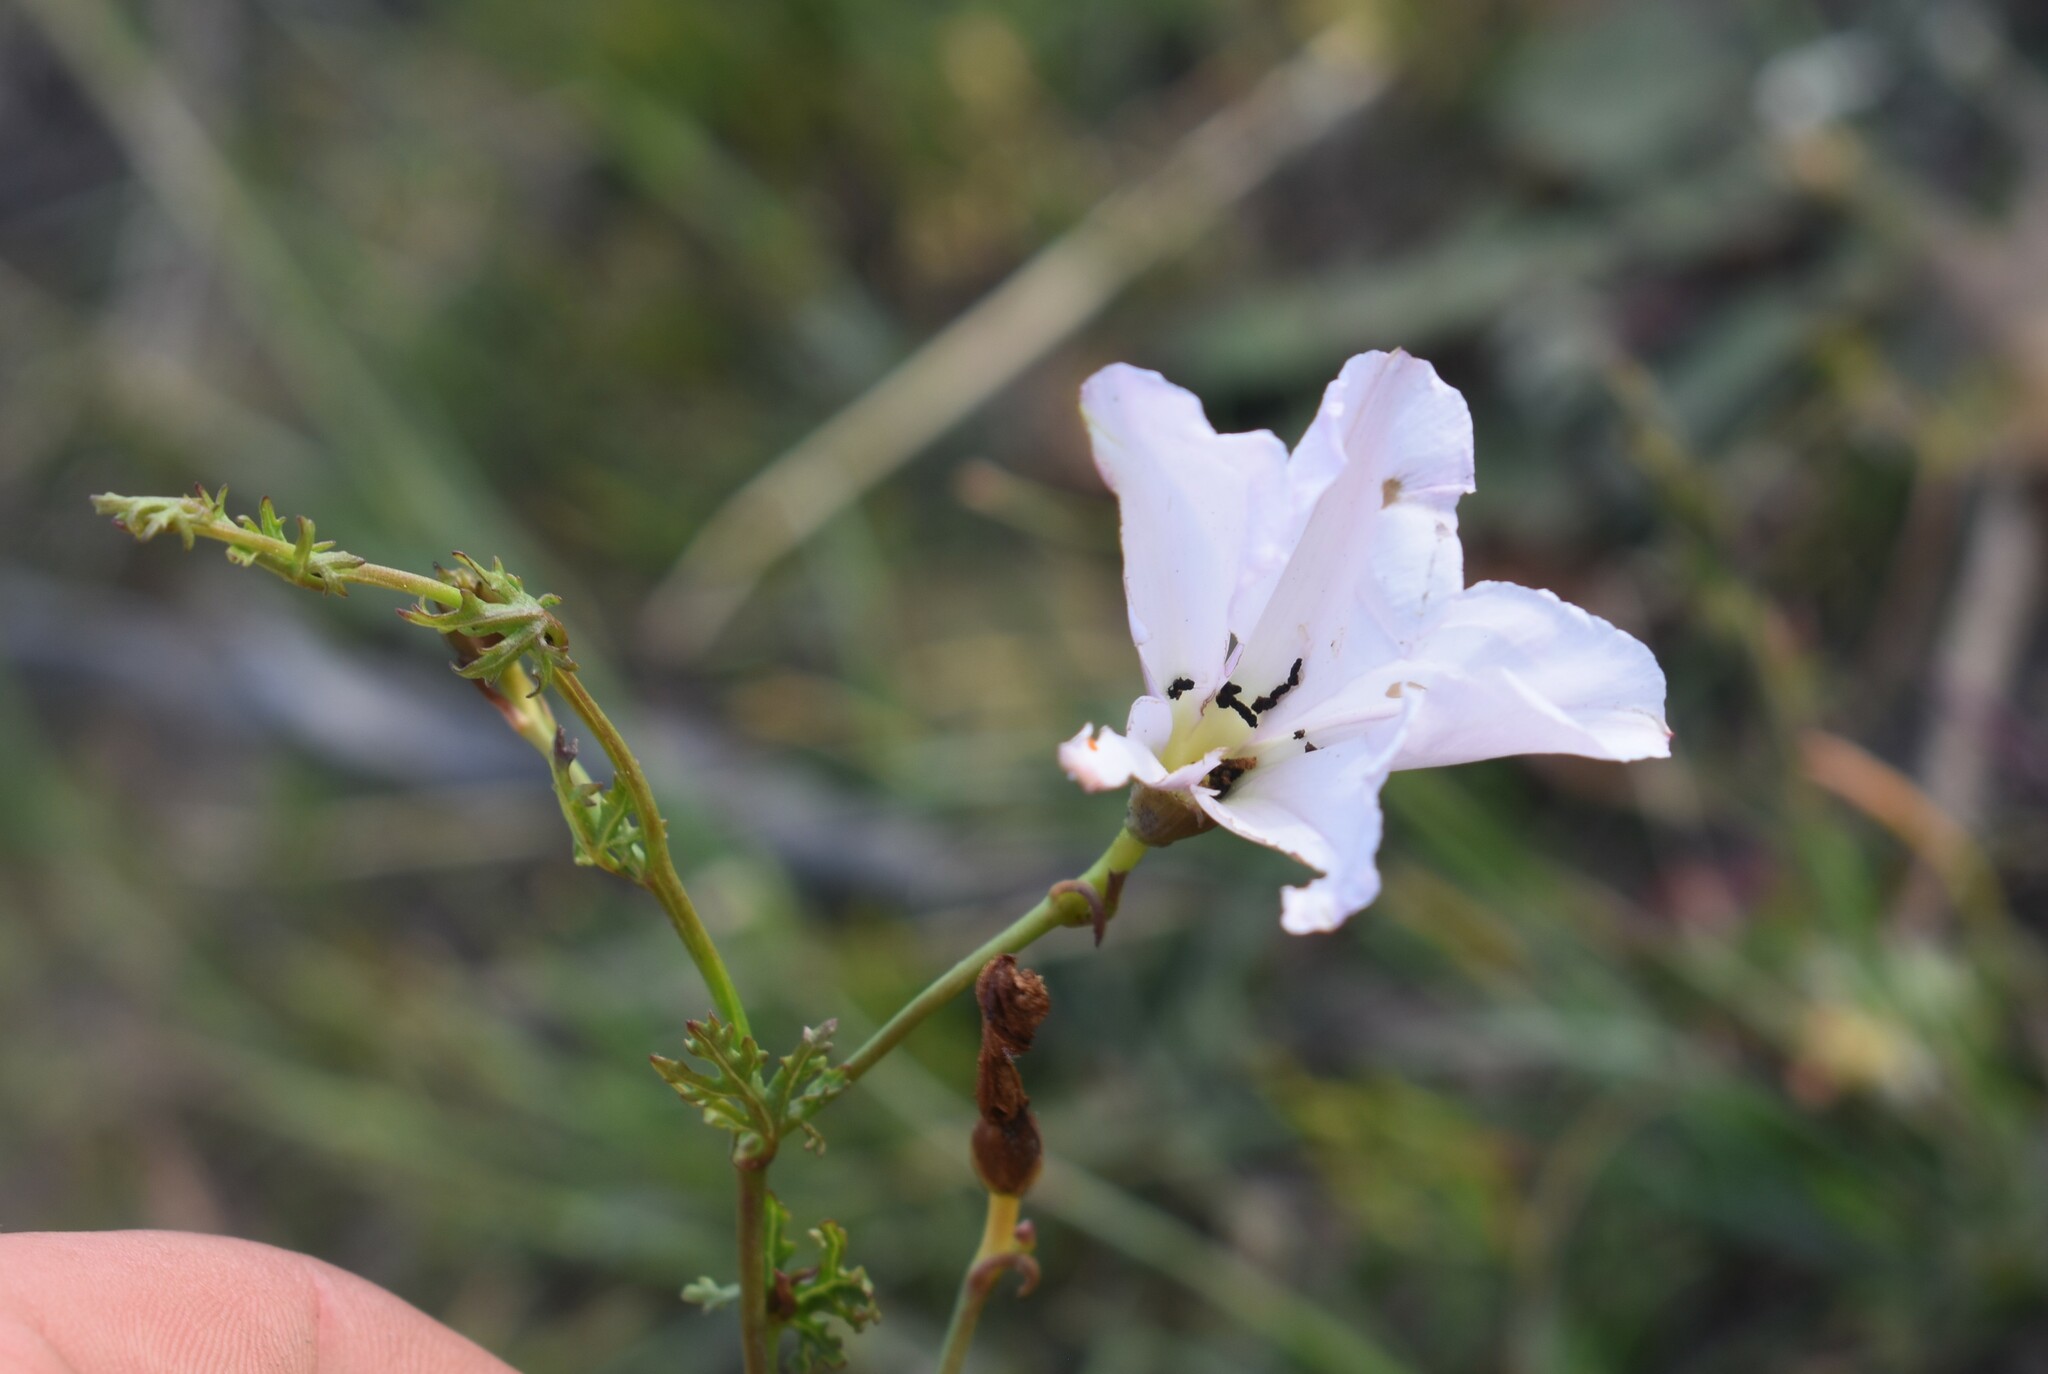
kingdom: Plantae
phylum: Tracheophyta
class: Magnoliopsida
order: Solanales
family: Convolvulaceae
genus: Convolvulus
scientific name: Convolvulus capensis
